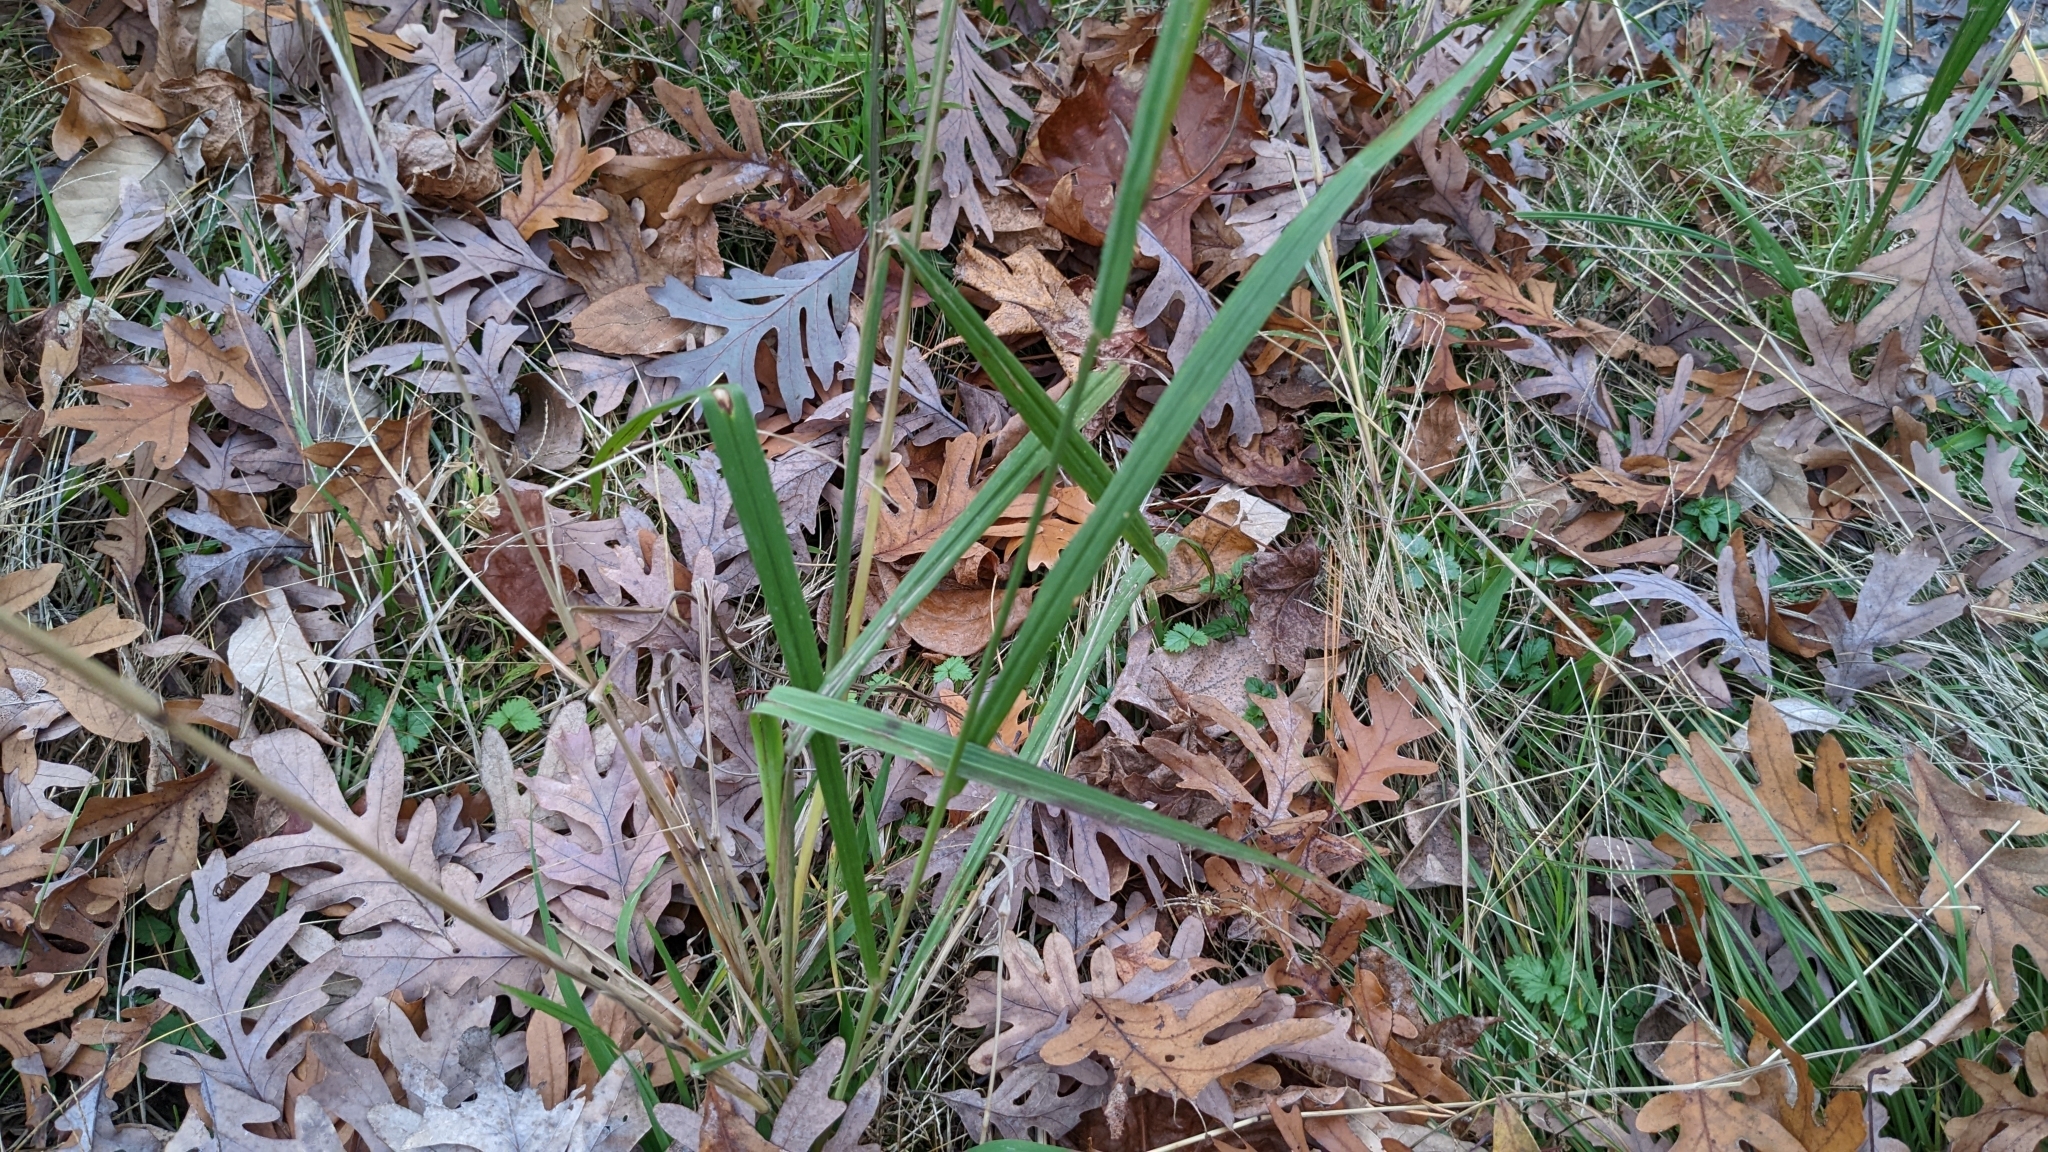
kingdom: Plantae
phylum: Tracheophyta
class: Liliopsida
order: Poales
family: Poaceae
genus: Paspalum
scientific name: Paspalum urvillei
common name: Vasey's grass
